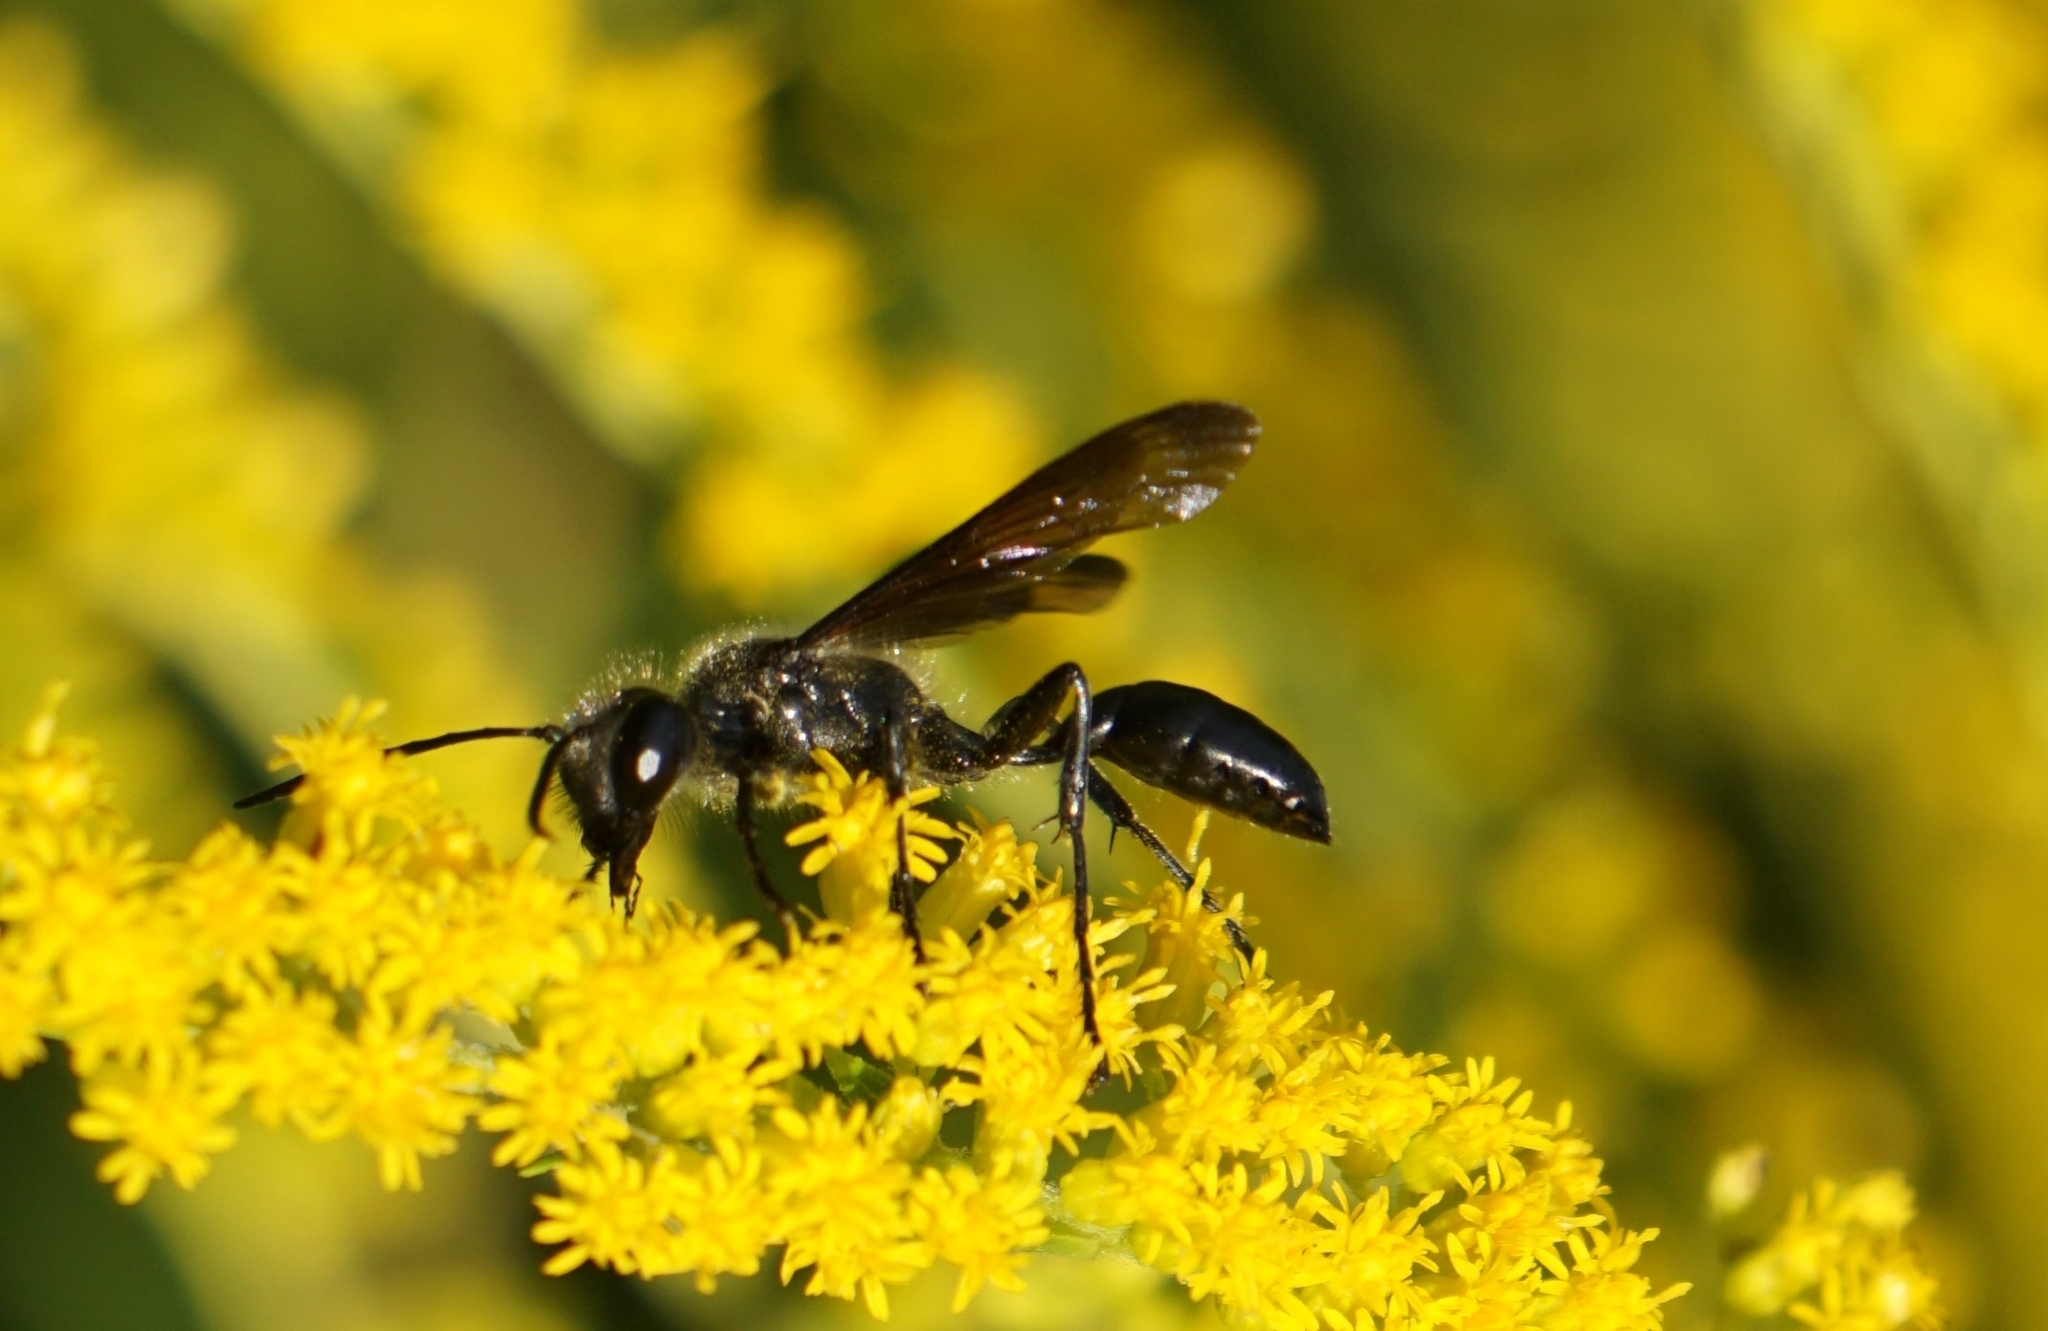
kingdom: Animalia
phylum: Arthropoda
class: Insecta
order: Hymenoptera
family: Sphecidae
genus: Isodontia
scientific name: Isodontia mexicana
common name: Mud dauber
